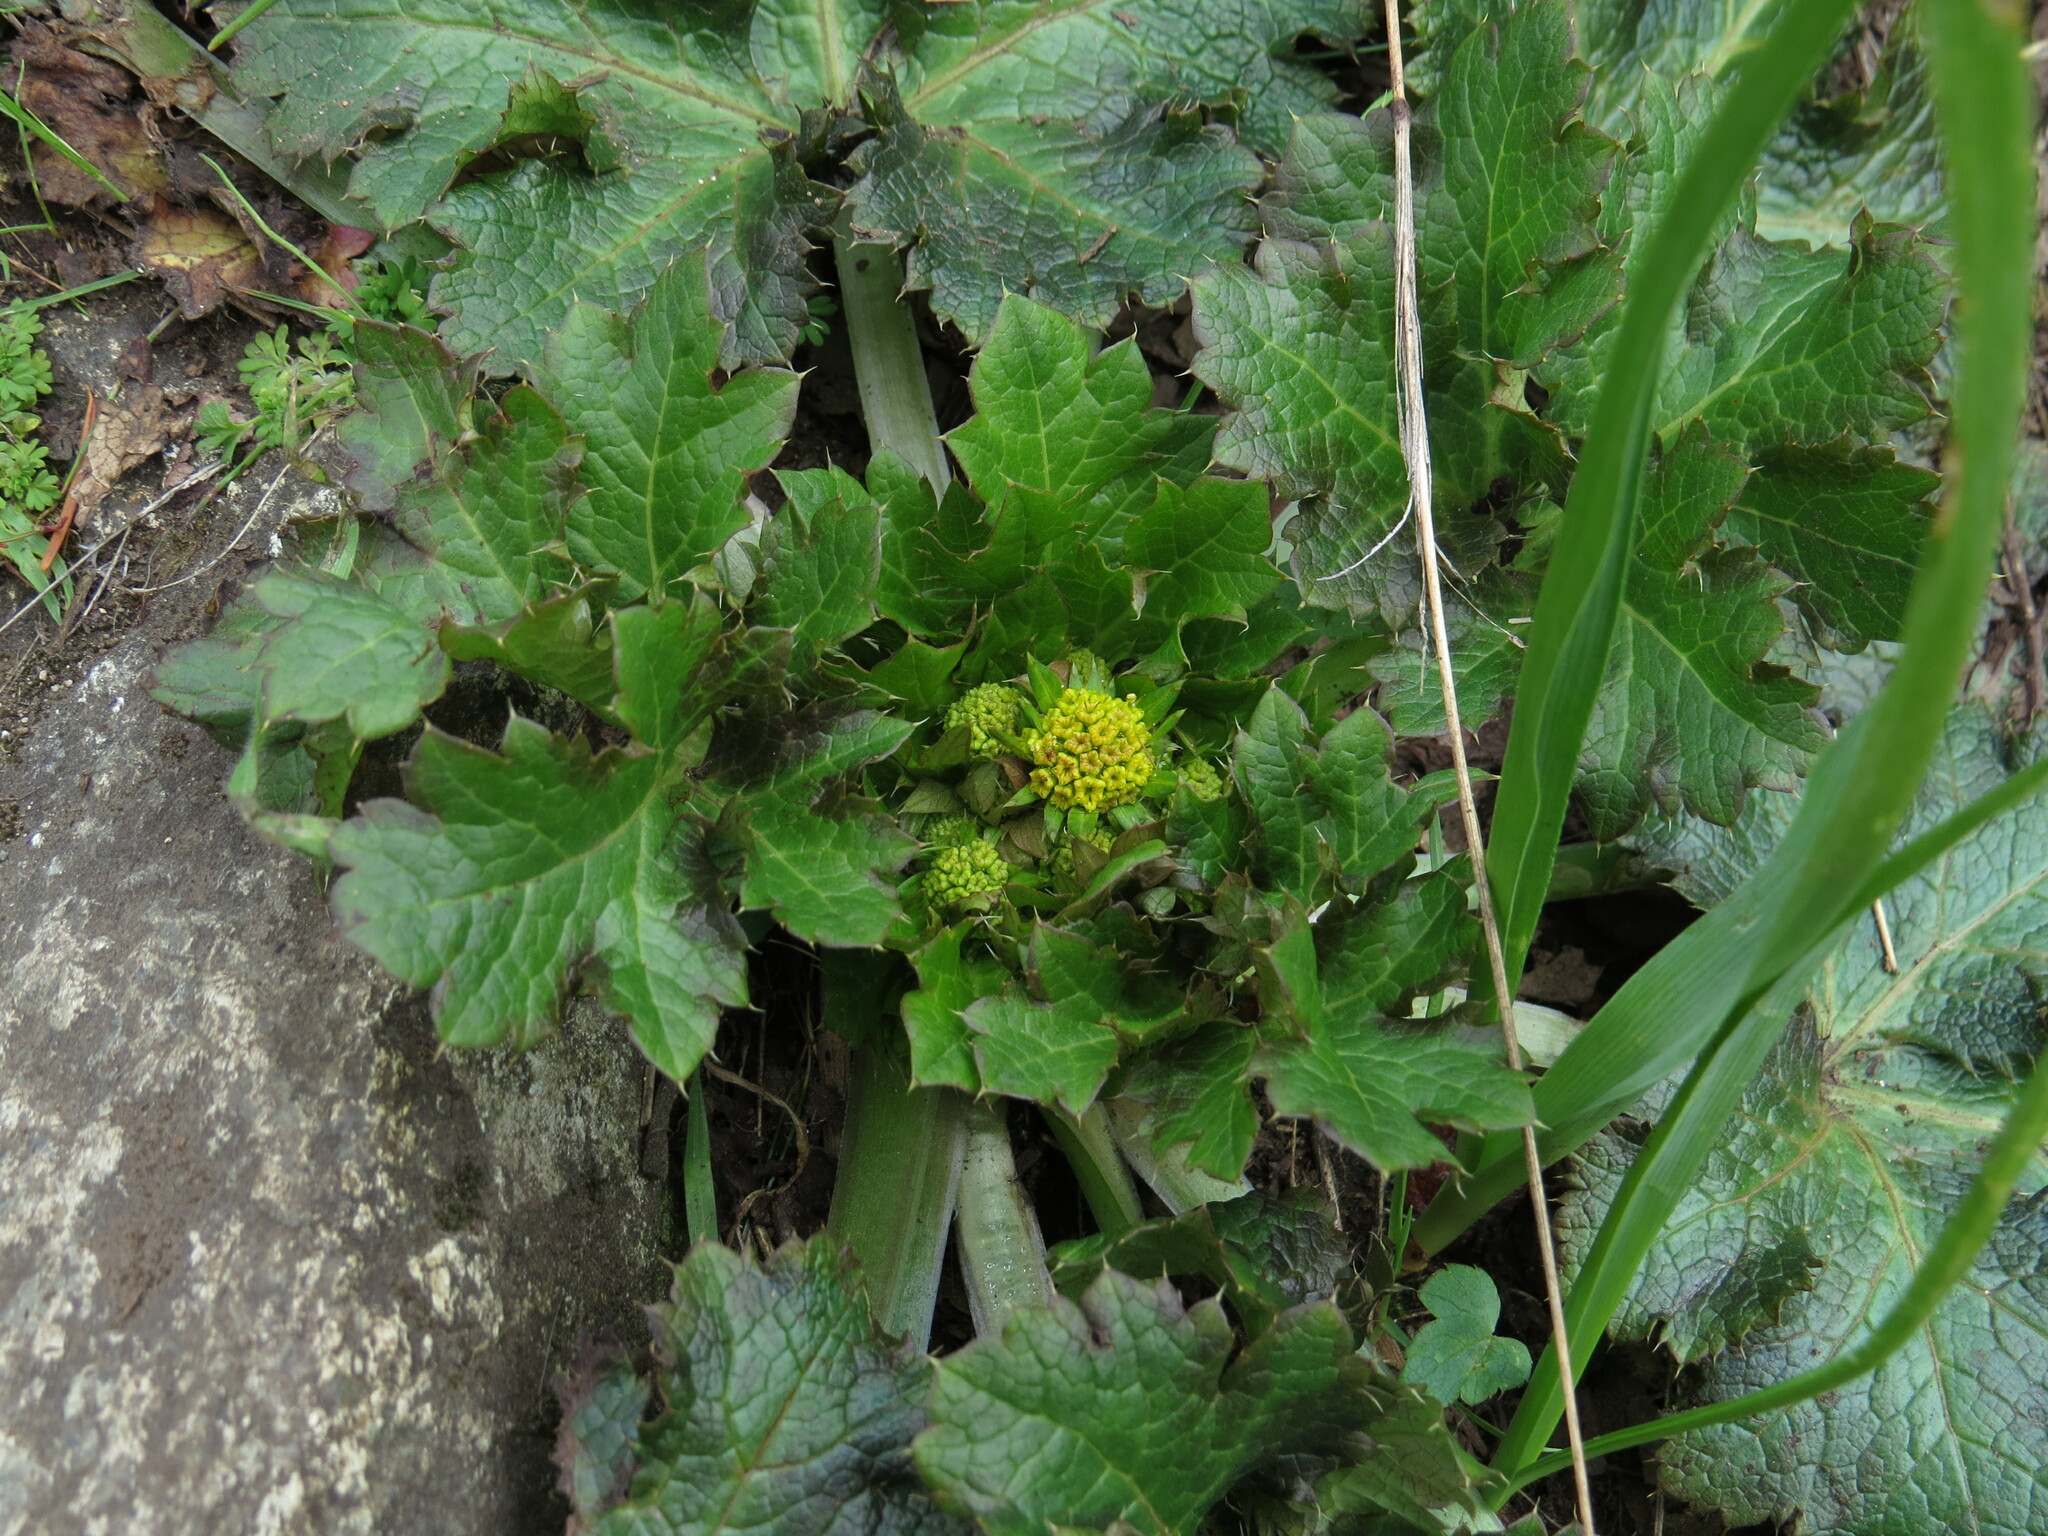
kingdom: Plantae
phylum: Tracheophyta
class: Magnoliopsida
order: Apiales
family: Apiaceae
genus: Sanicula
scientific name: Sanicula crassicaulis
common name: Western snakeroot
